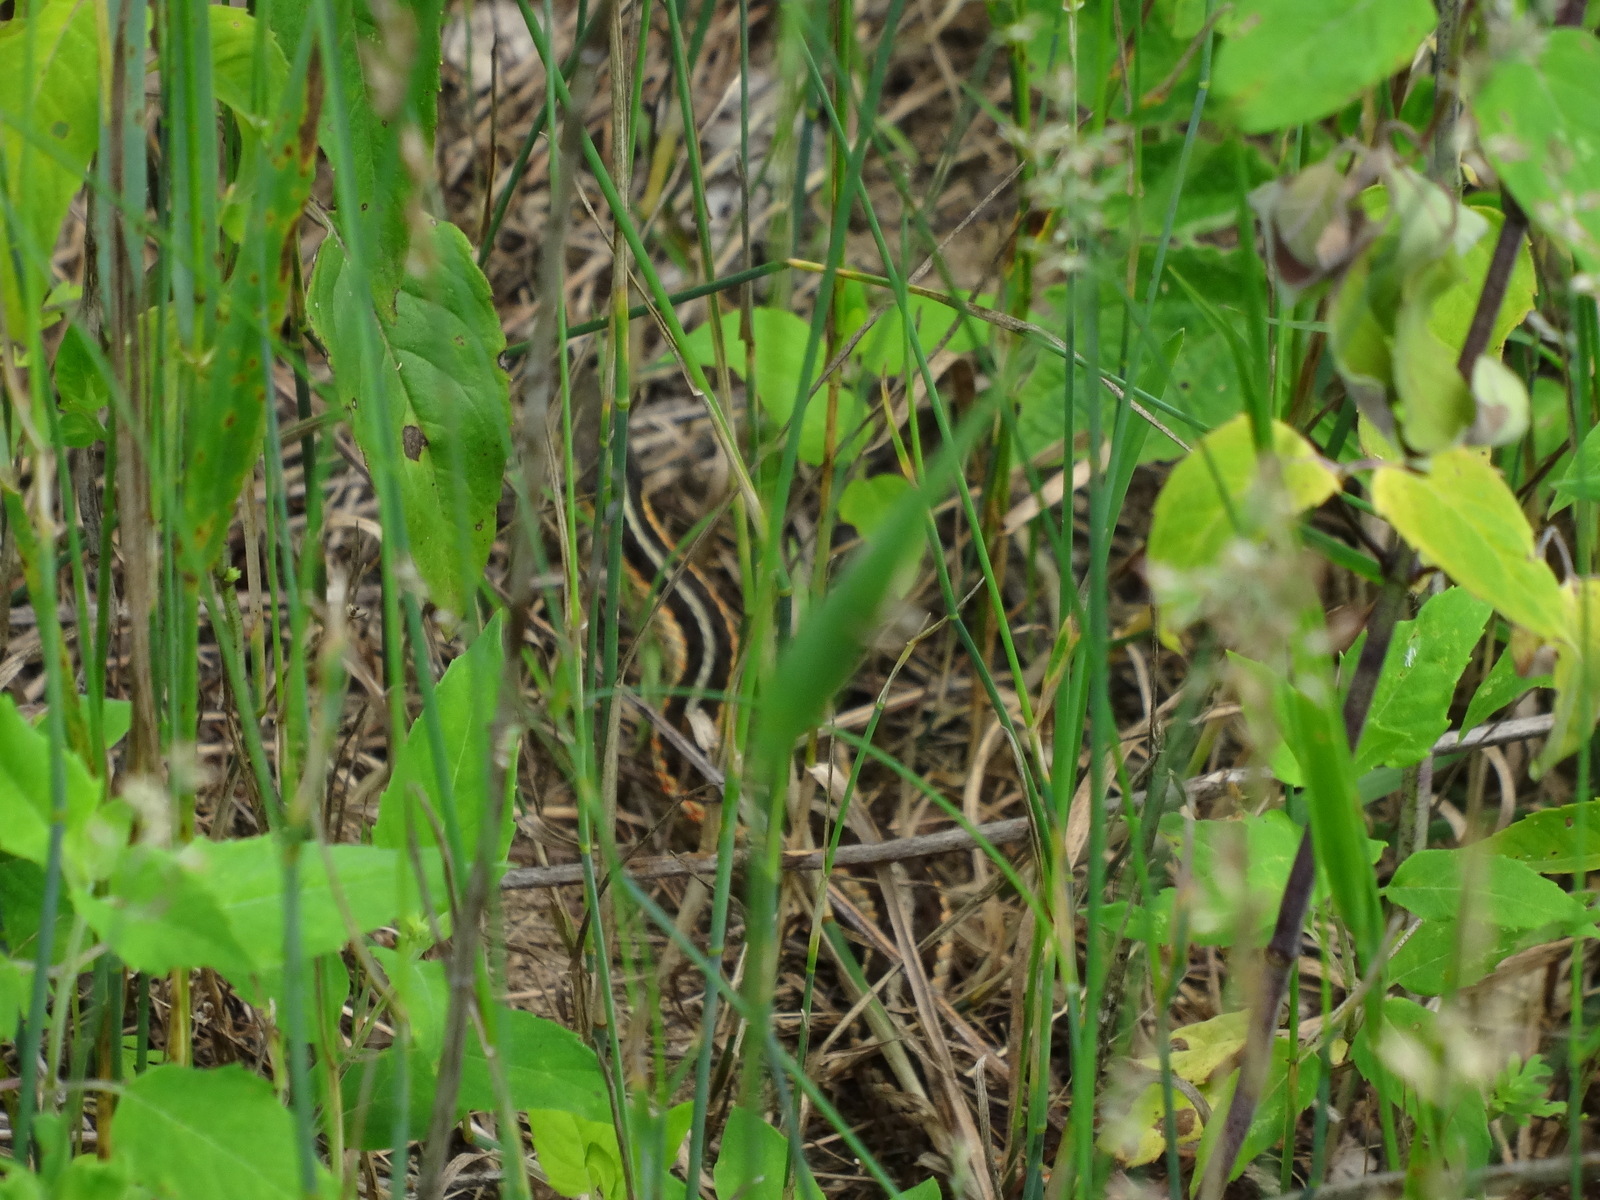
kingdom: Animalia
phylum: Chordata
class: Squamata
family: Colubridae
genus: Thamnophis
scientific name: Thamnophis
